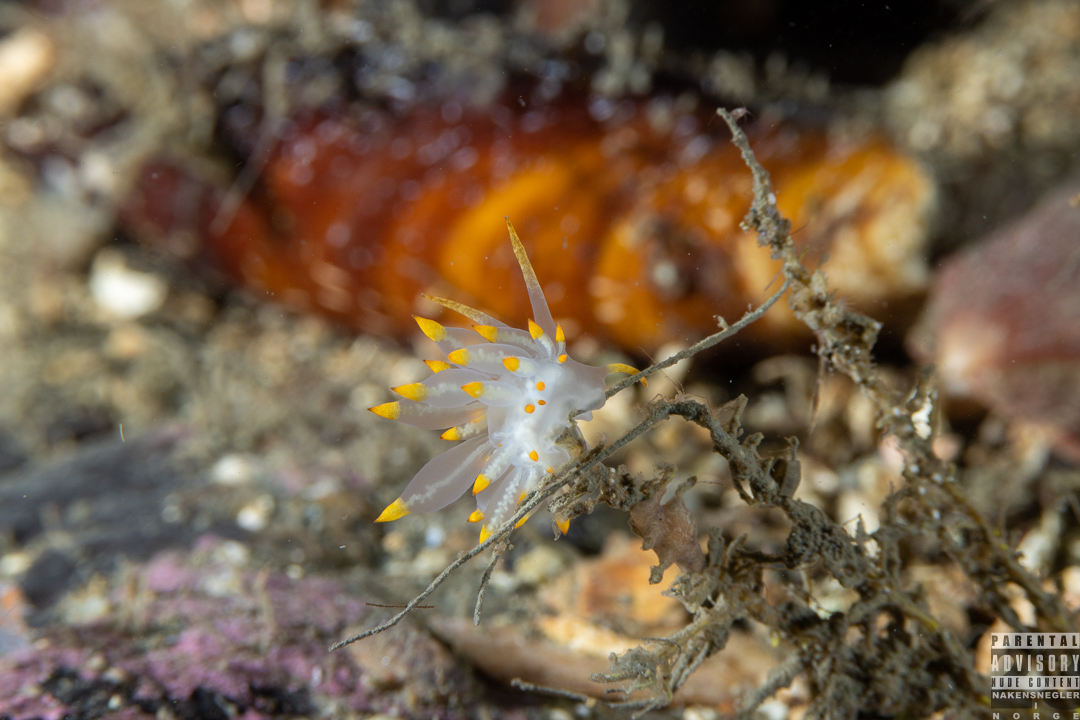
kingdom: Animalia
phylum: Mollusca
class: Gastropoda
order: Nudibranchia
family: Eubranchidae
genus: Amphorina
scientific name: Amphorina farrani
